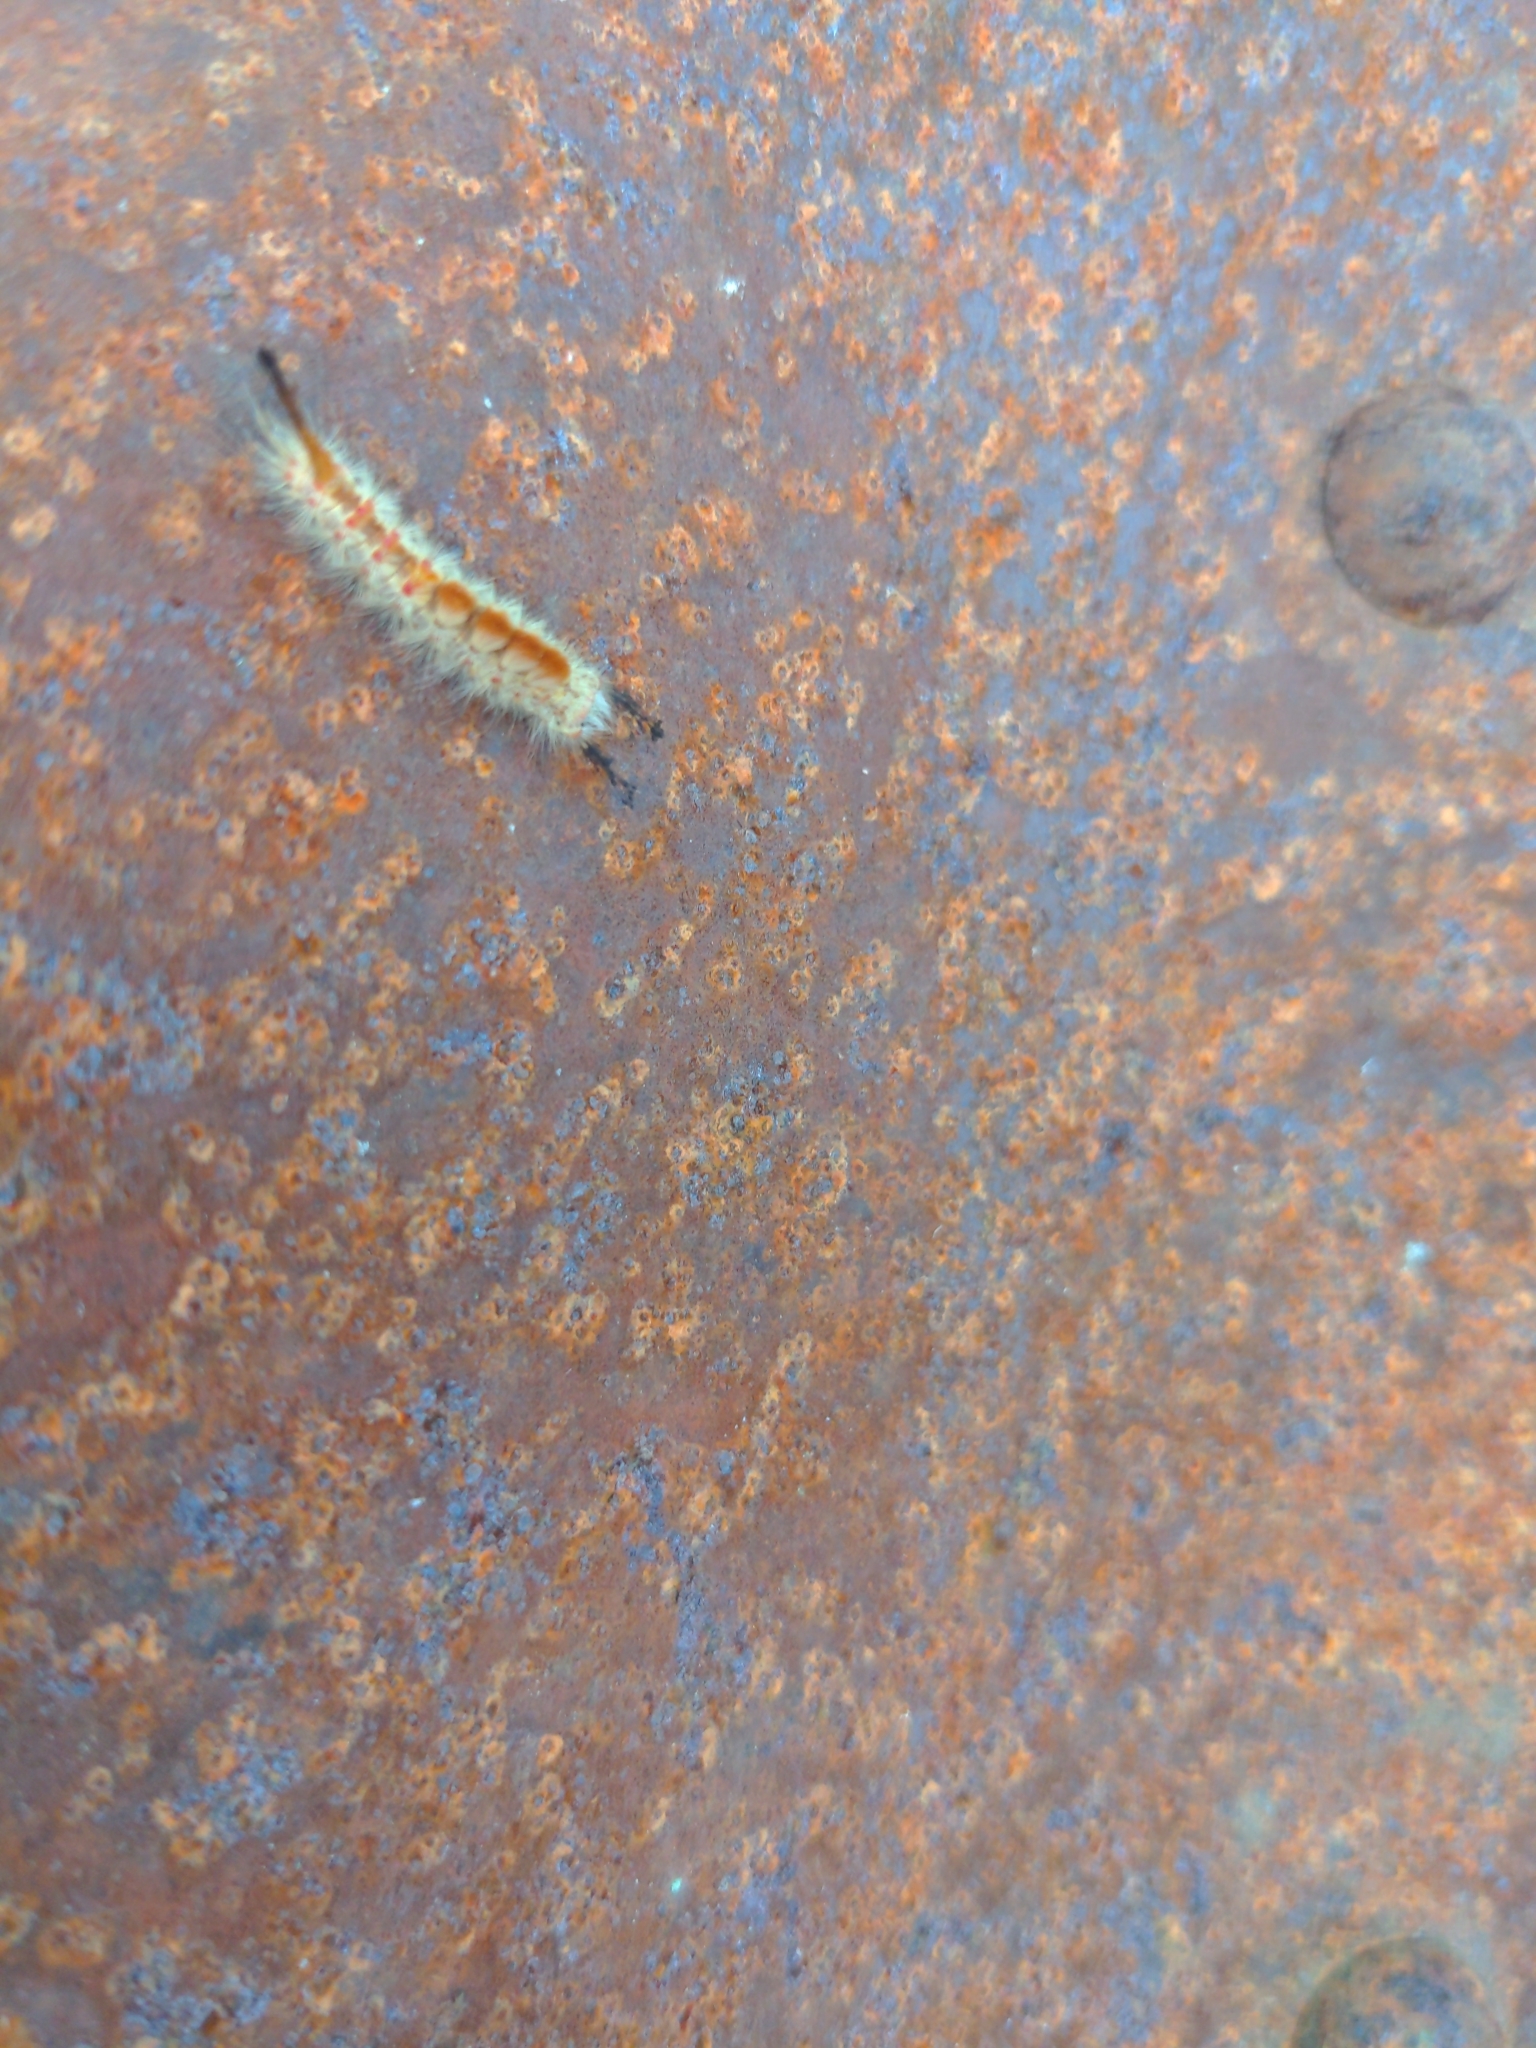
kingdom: Animalia
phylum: Arthropoda
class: Insecta
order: Lepidoptera
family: Erebidae
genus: Orgyia
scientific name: Orgyia pseudotsugata
